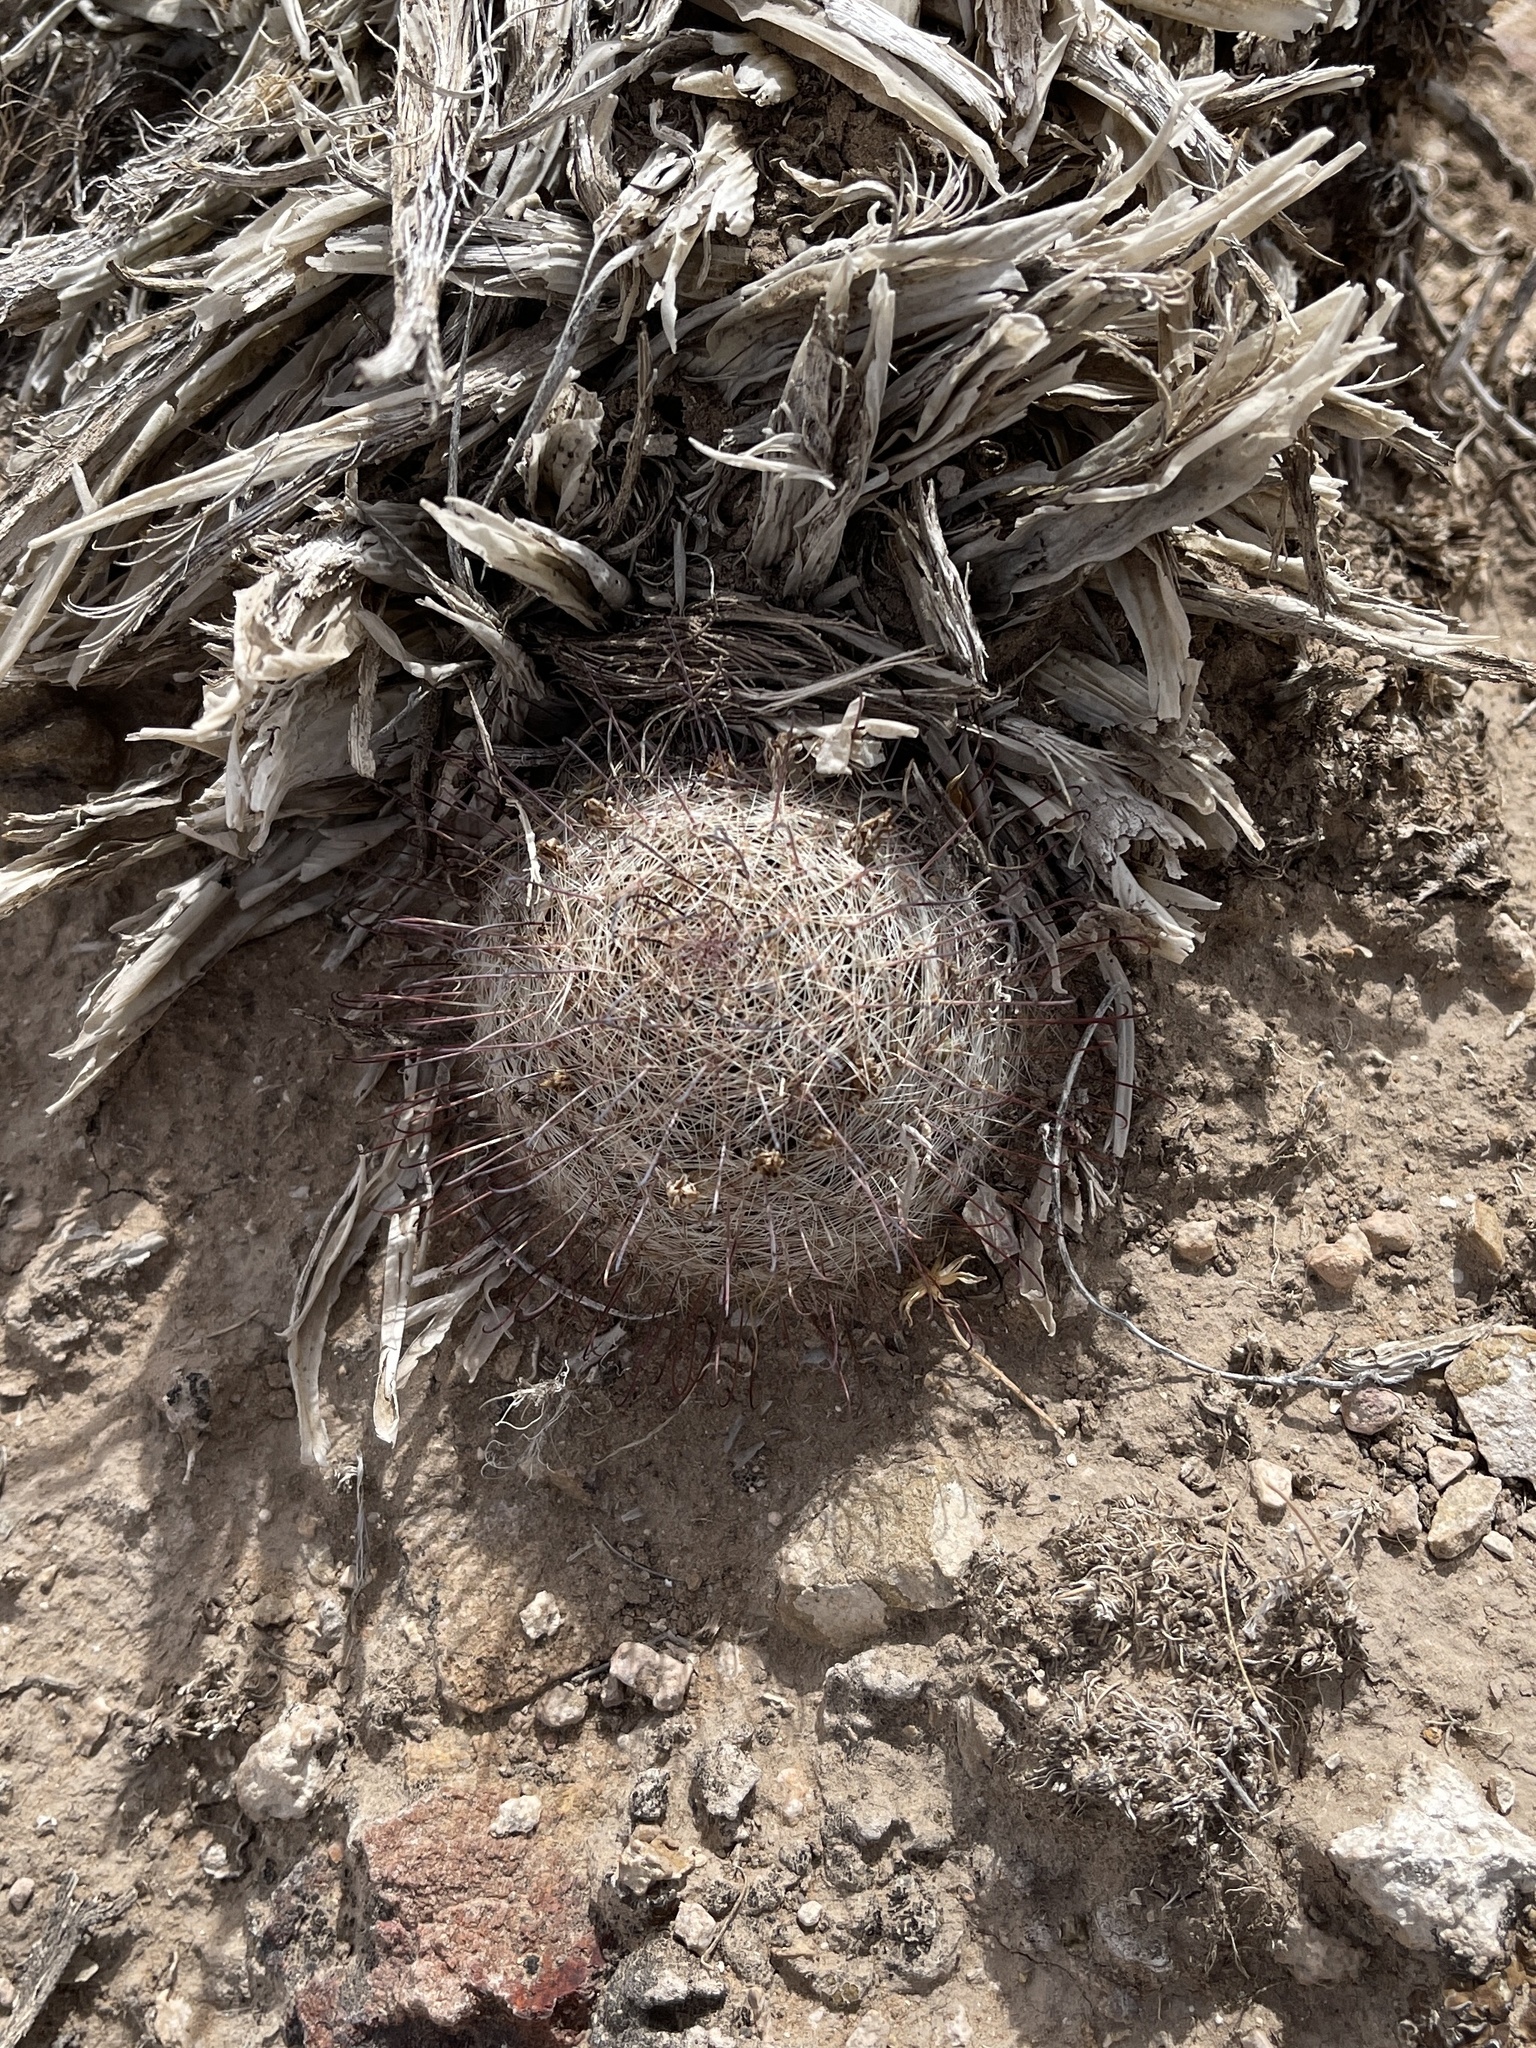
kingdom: Plantae
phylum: Tracheophyta
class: Magnoliopsida
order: Caryophyllales
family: Cactaceae
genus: Cochemiea
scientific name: Cochemiea grahamii
